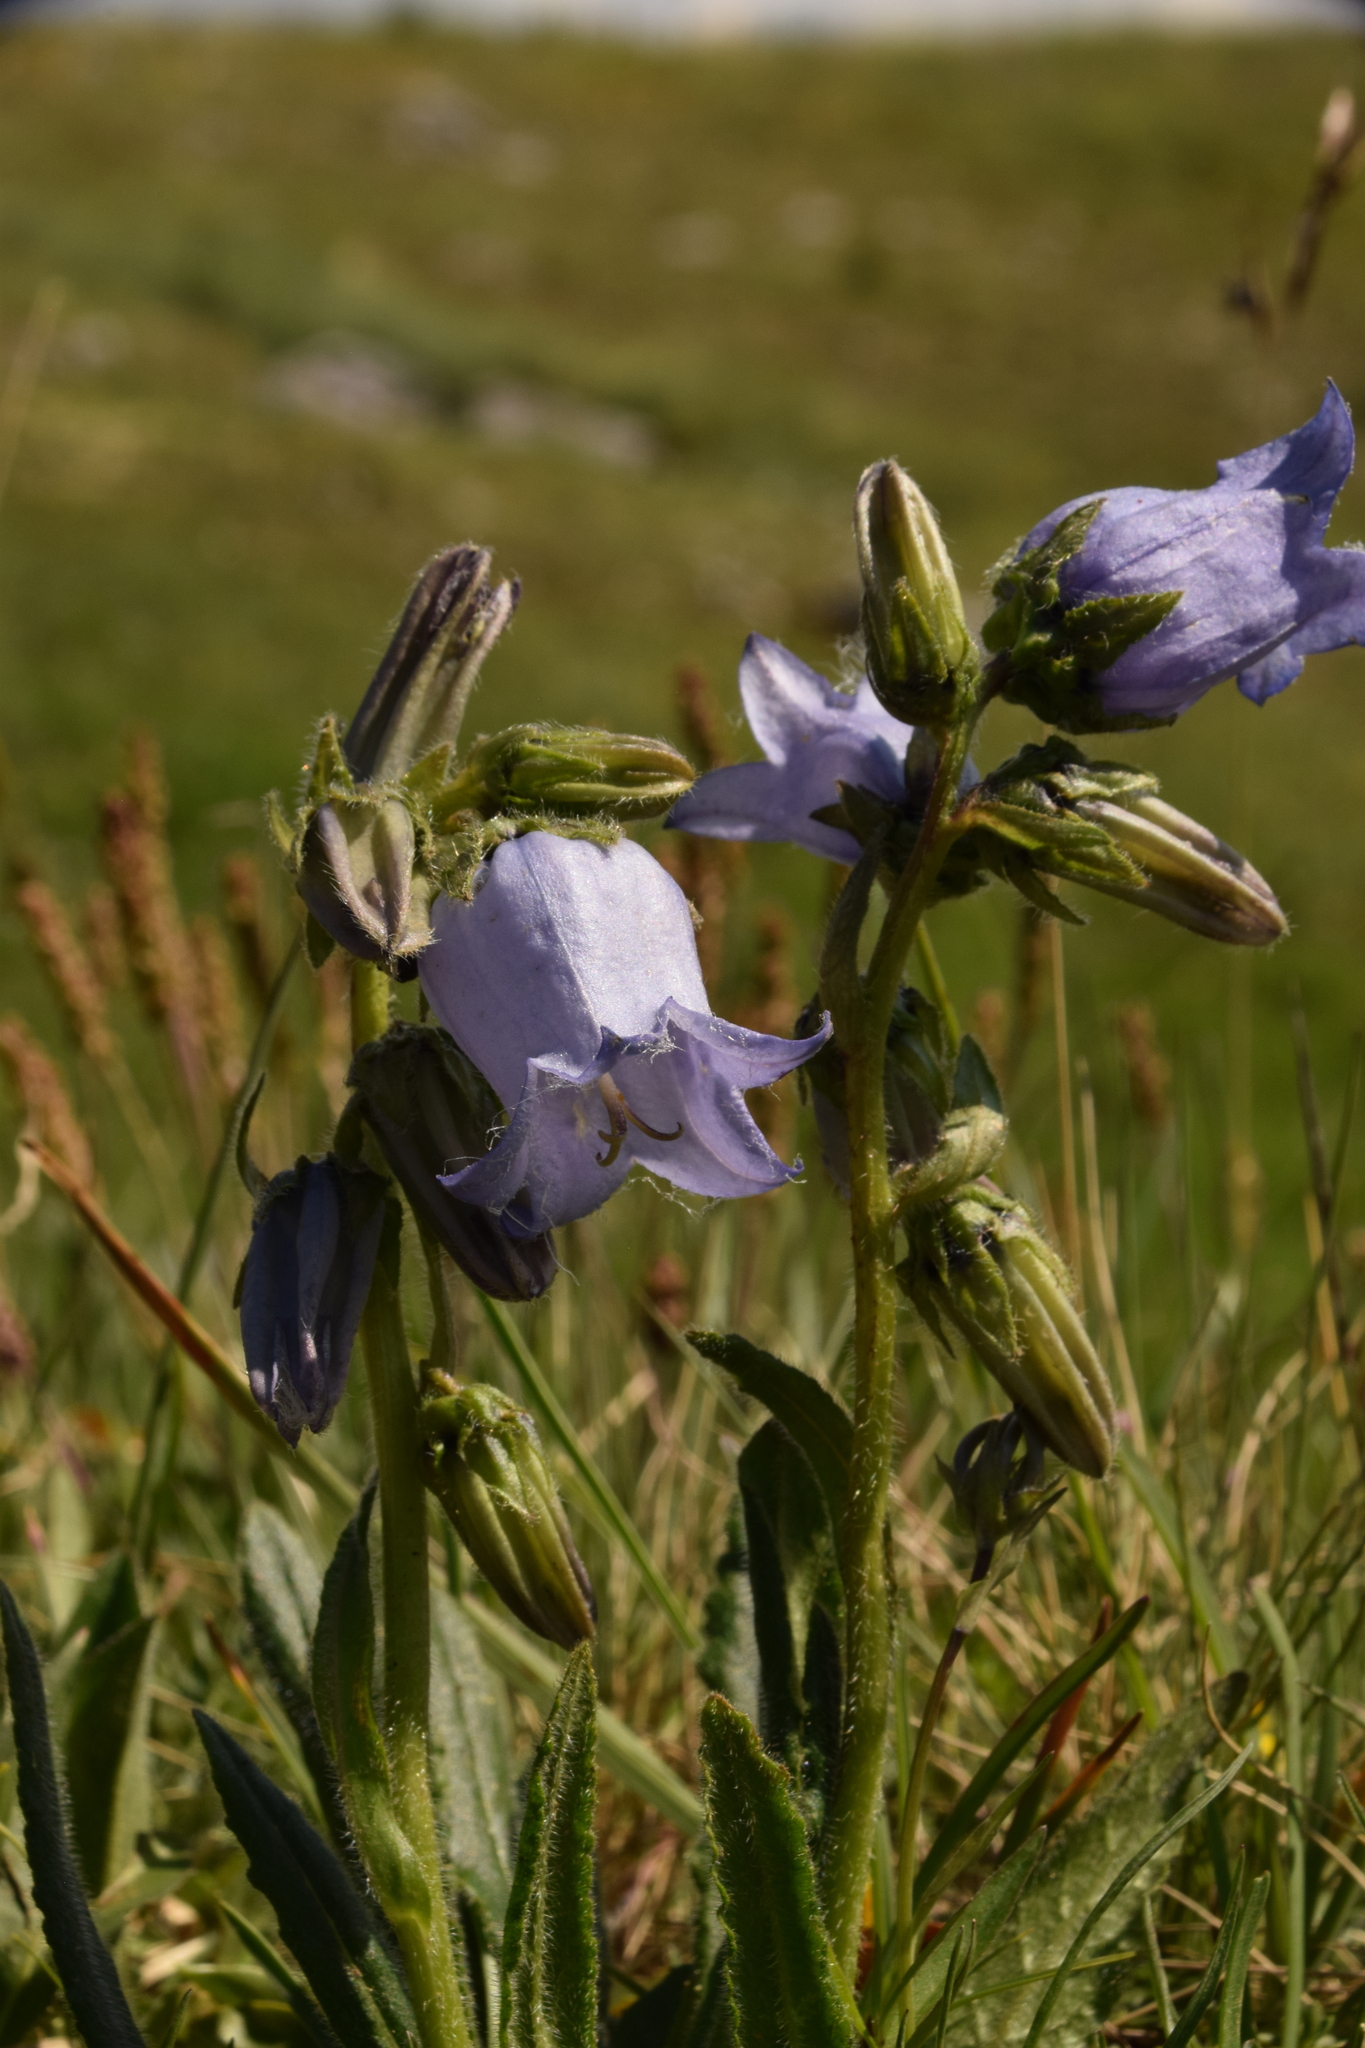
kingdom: Plantae
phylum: Tracheophyta
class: Magnoliopsida
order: Asterales
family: Campanulaceae
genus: Campanula
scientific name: Campanula barbata
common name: Bearded bellflower
